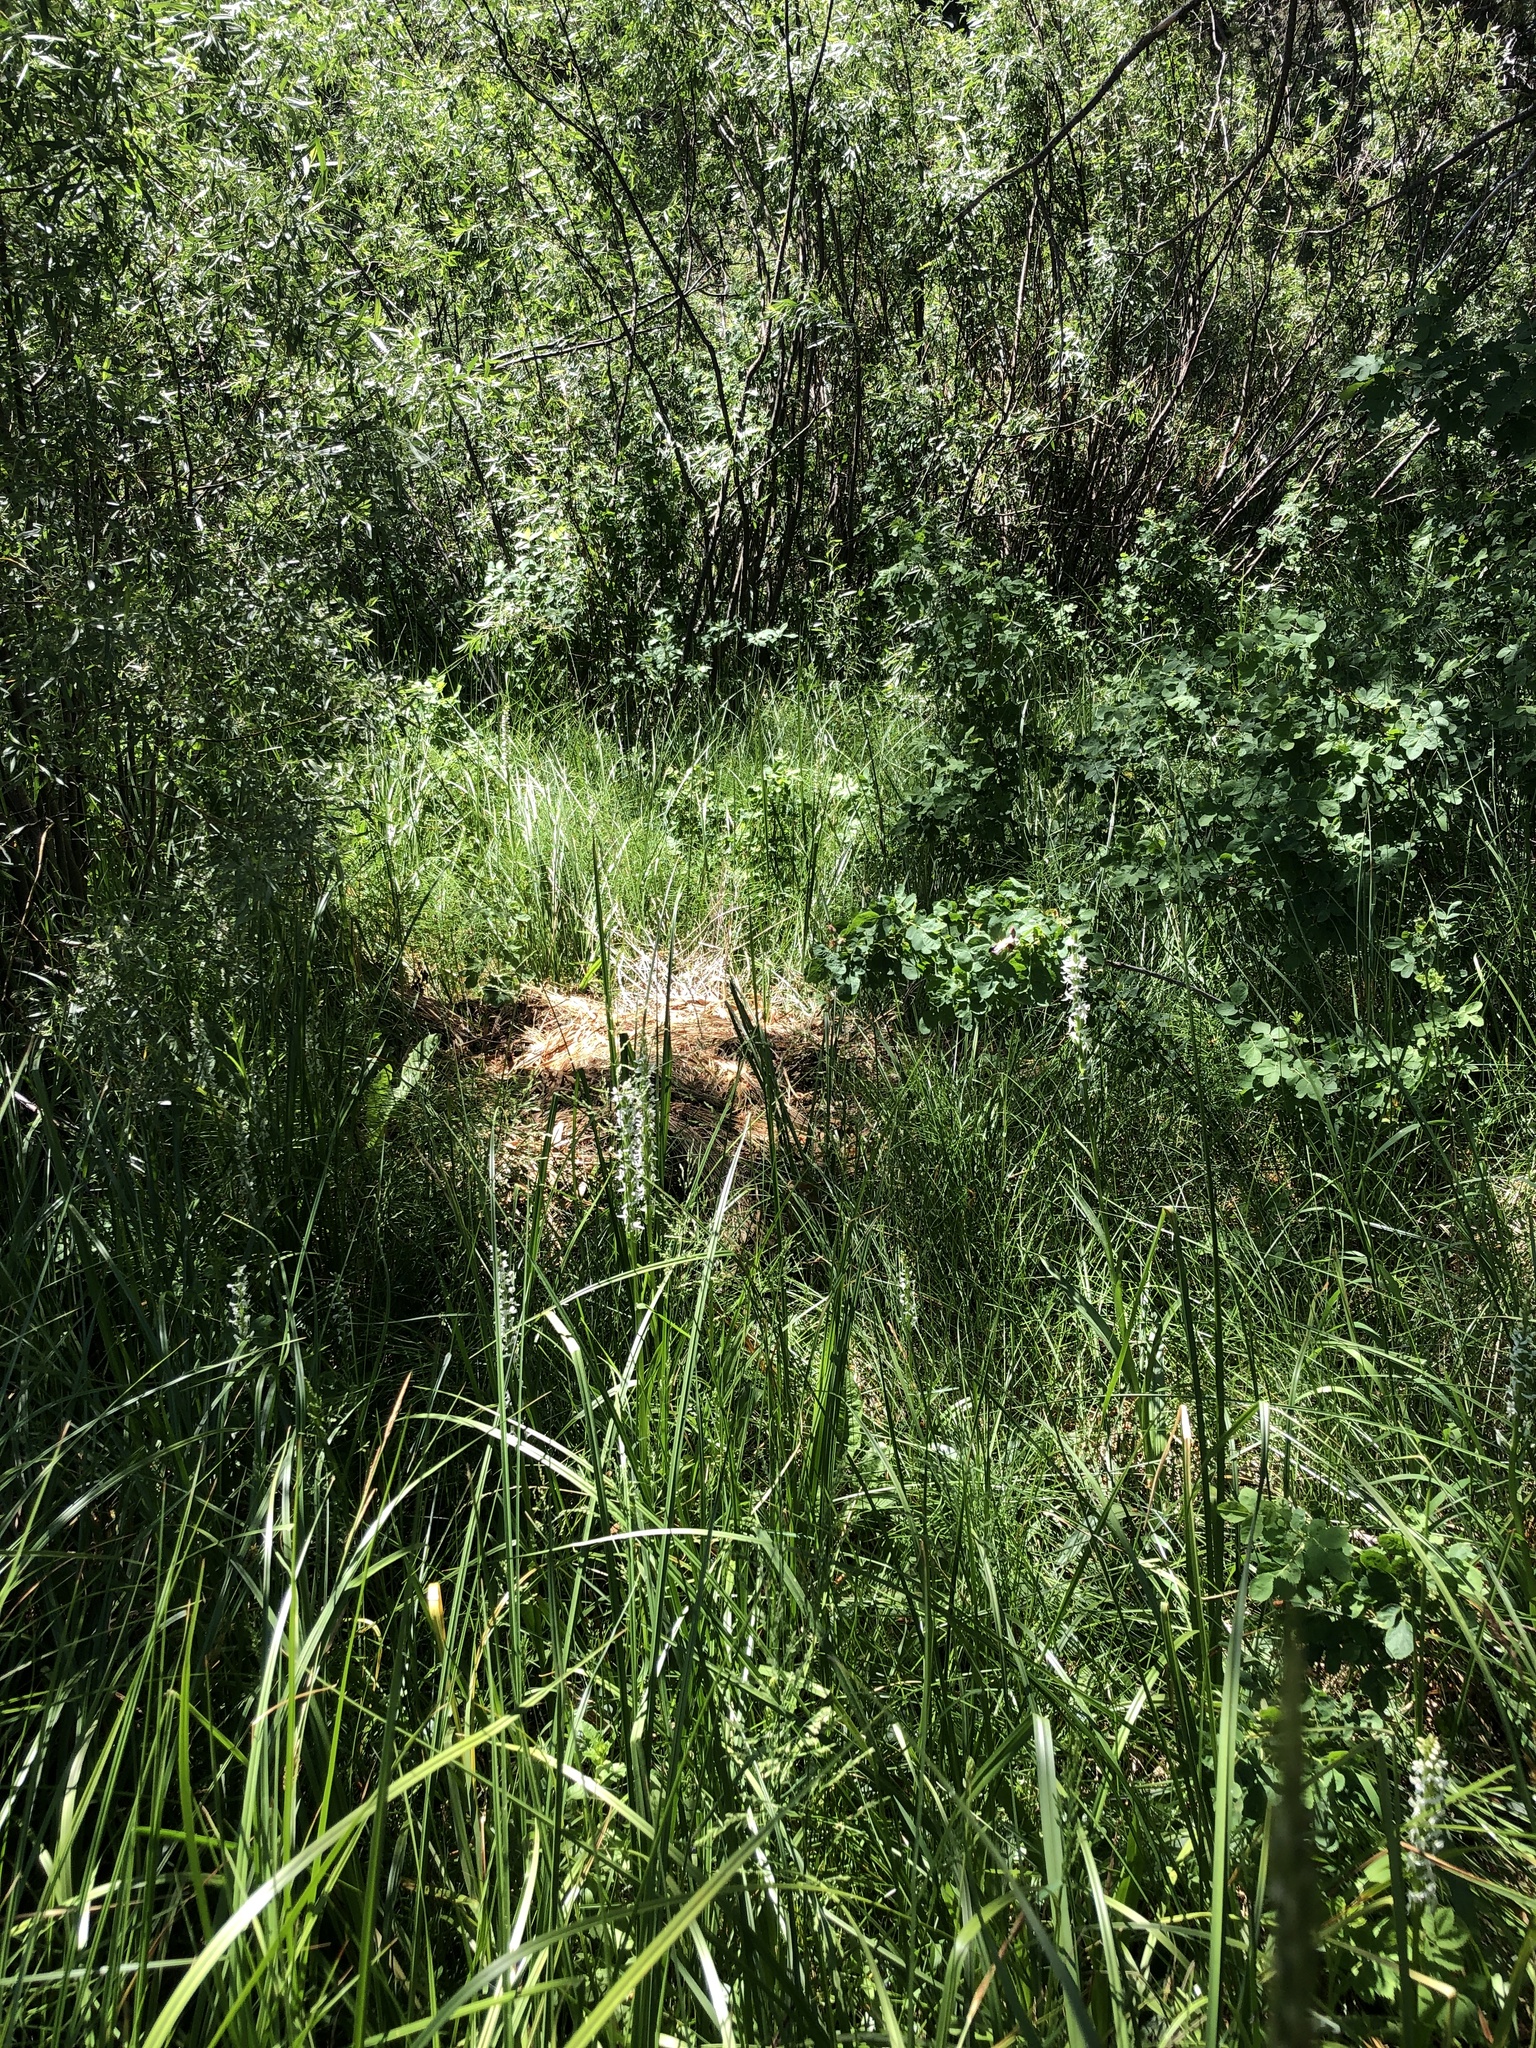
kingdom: Plantae
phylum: Tracheophyta
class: Liliopsida
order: Asparagales
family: Orchidaceae
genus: Platanthera
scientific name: Platanthera dilatata
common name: Bog candles
